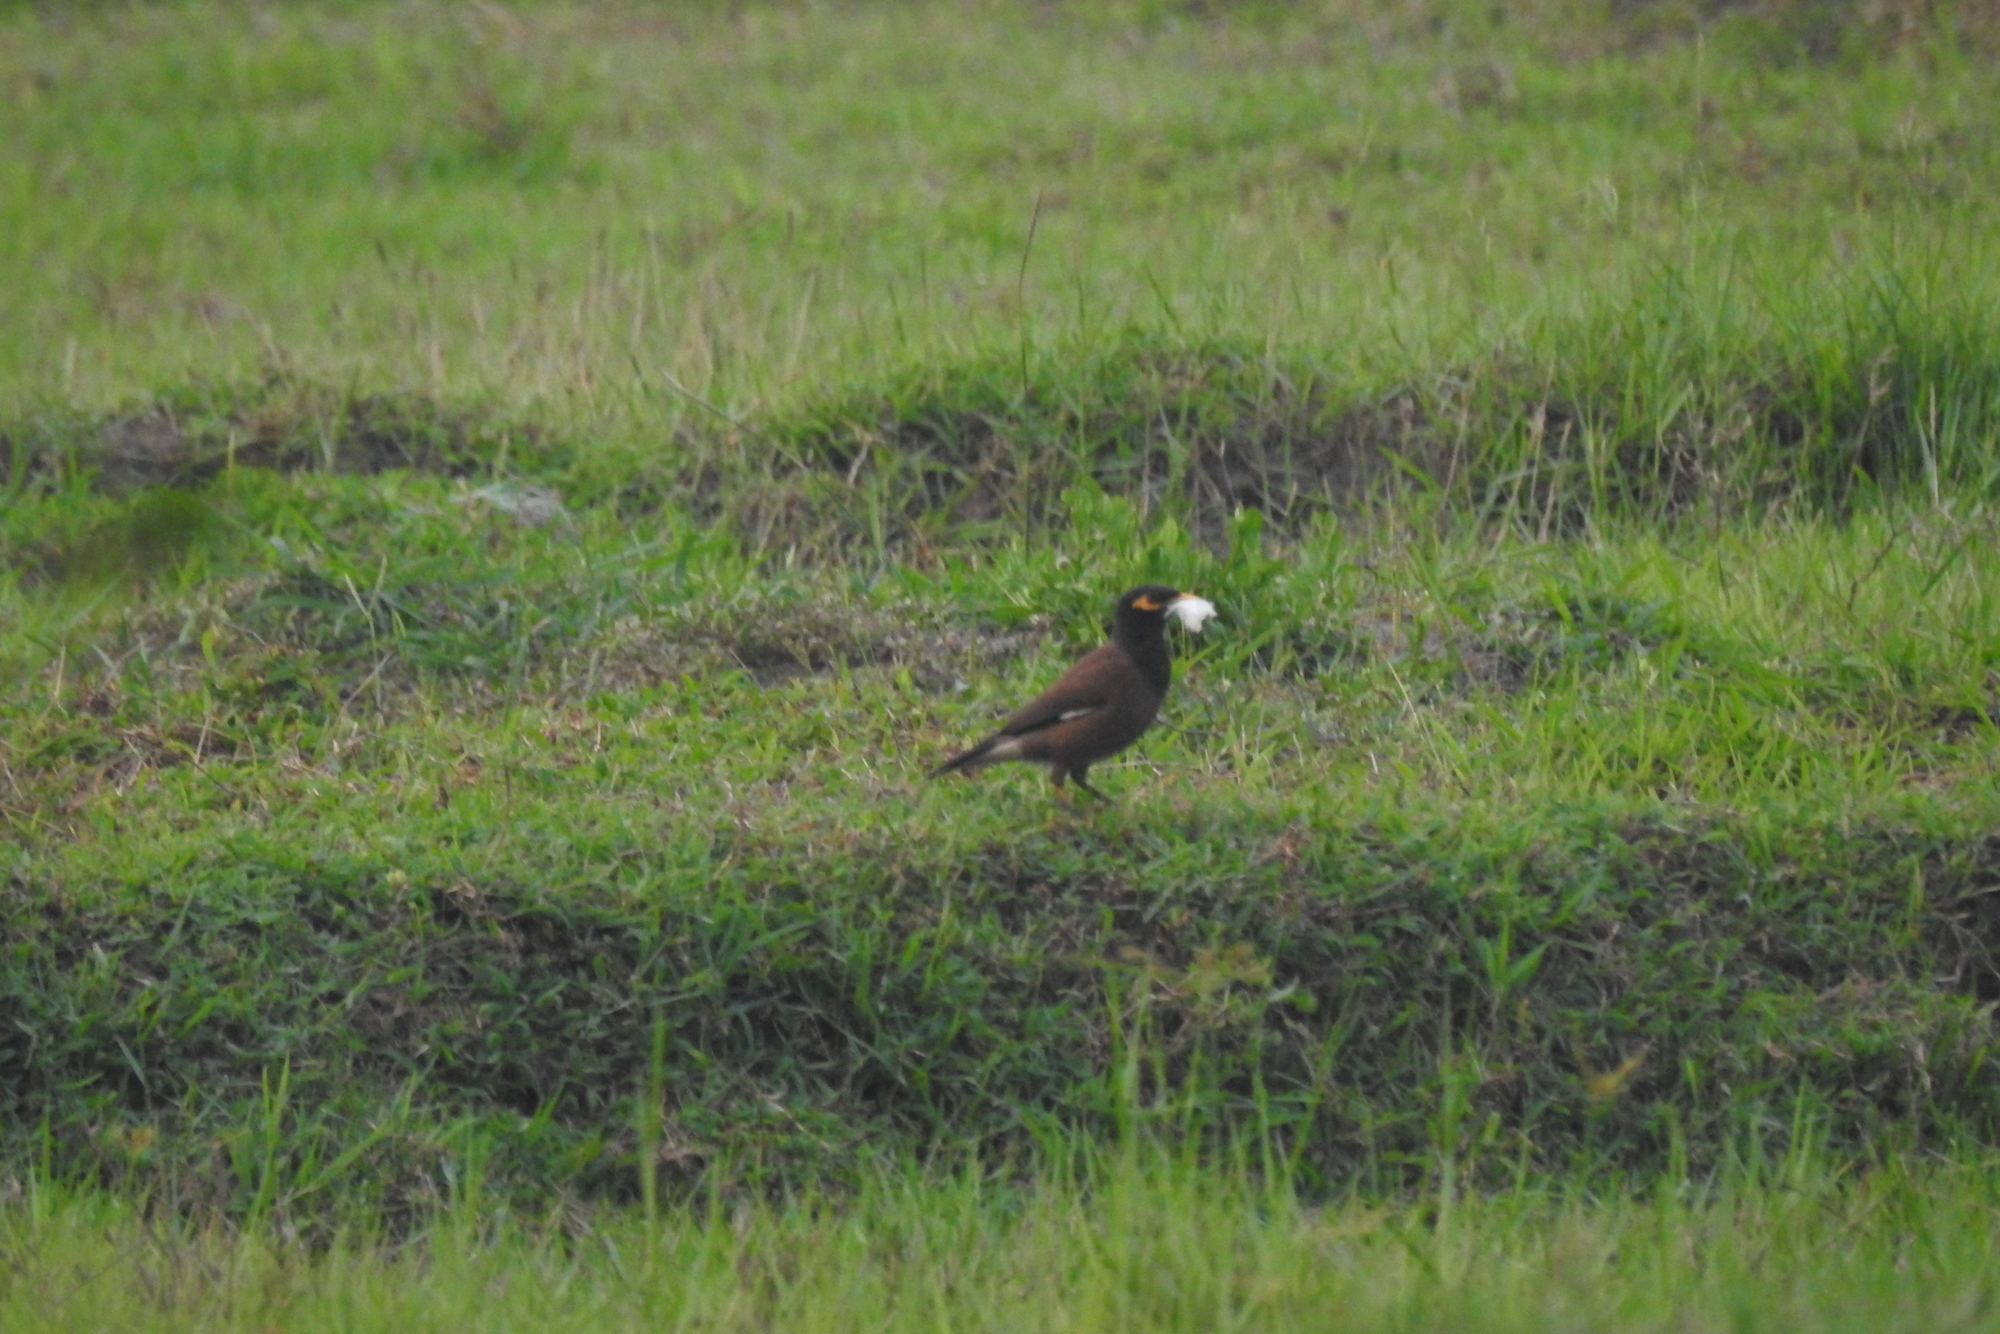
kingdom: Animalia
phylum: Chordata
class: Aves
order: Passeriformes
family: Sturnidae
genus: Acridotheres
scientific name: Acridotheres tristis
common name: Common myna
